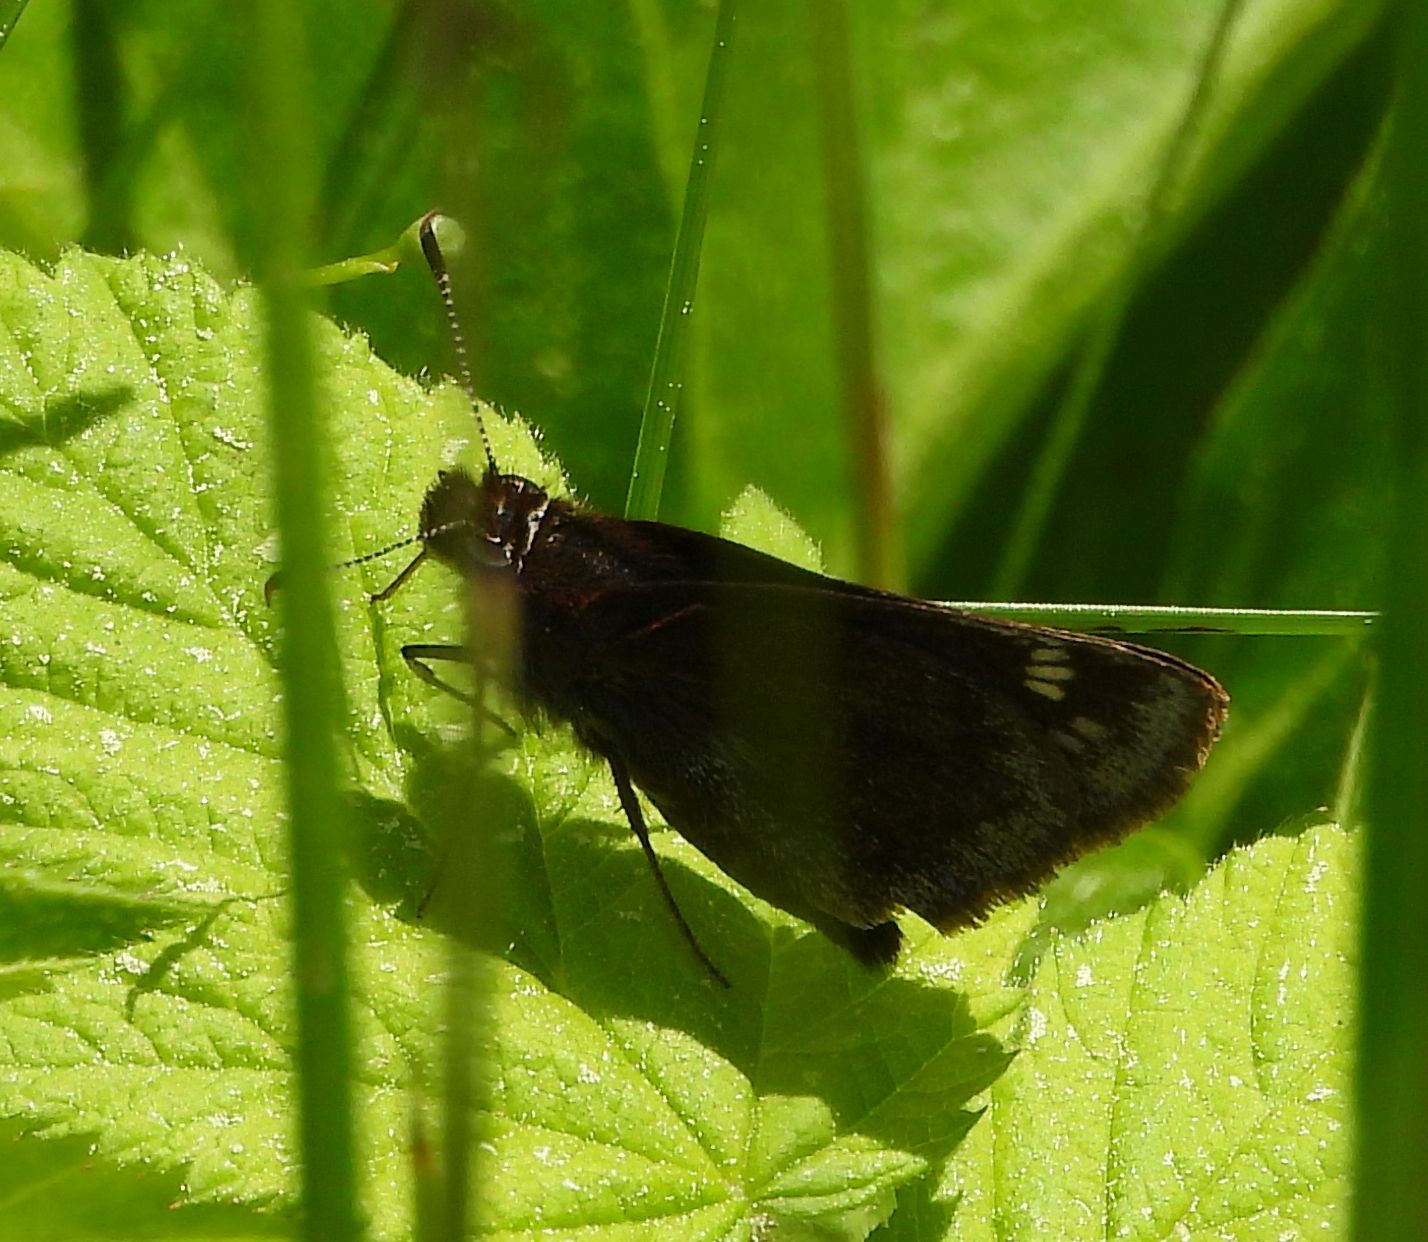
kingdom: Animalia
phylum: Arthropoda
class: Insecta
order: Lepidoptera
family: Hesperiidae
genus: Lon
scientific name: Lon hobomok
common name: Hobomok skipper
